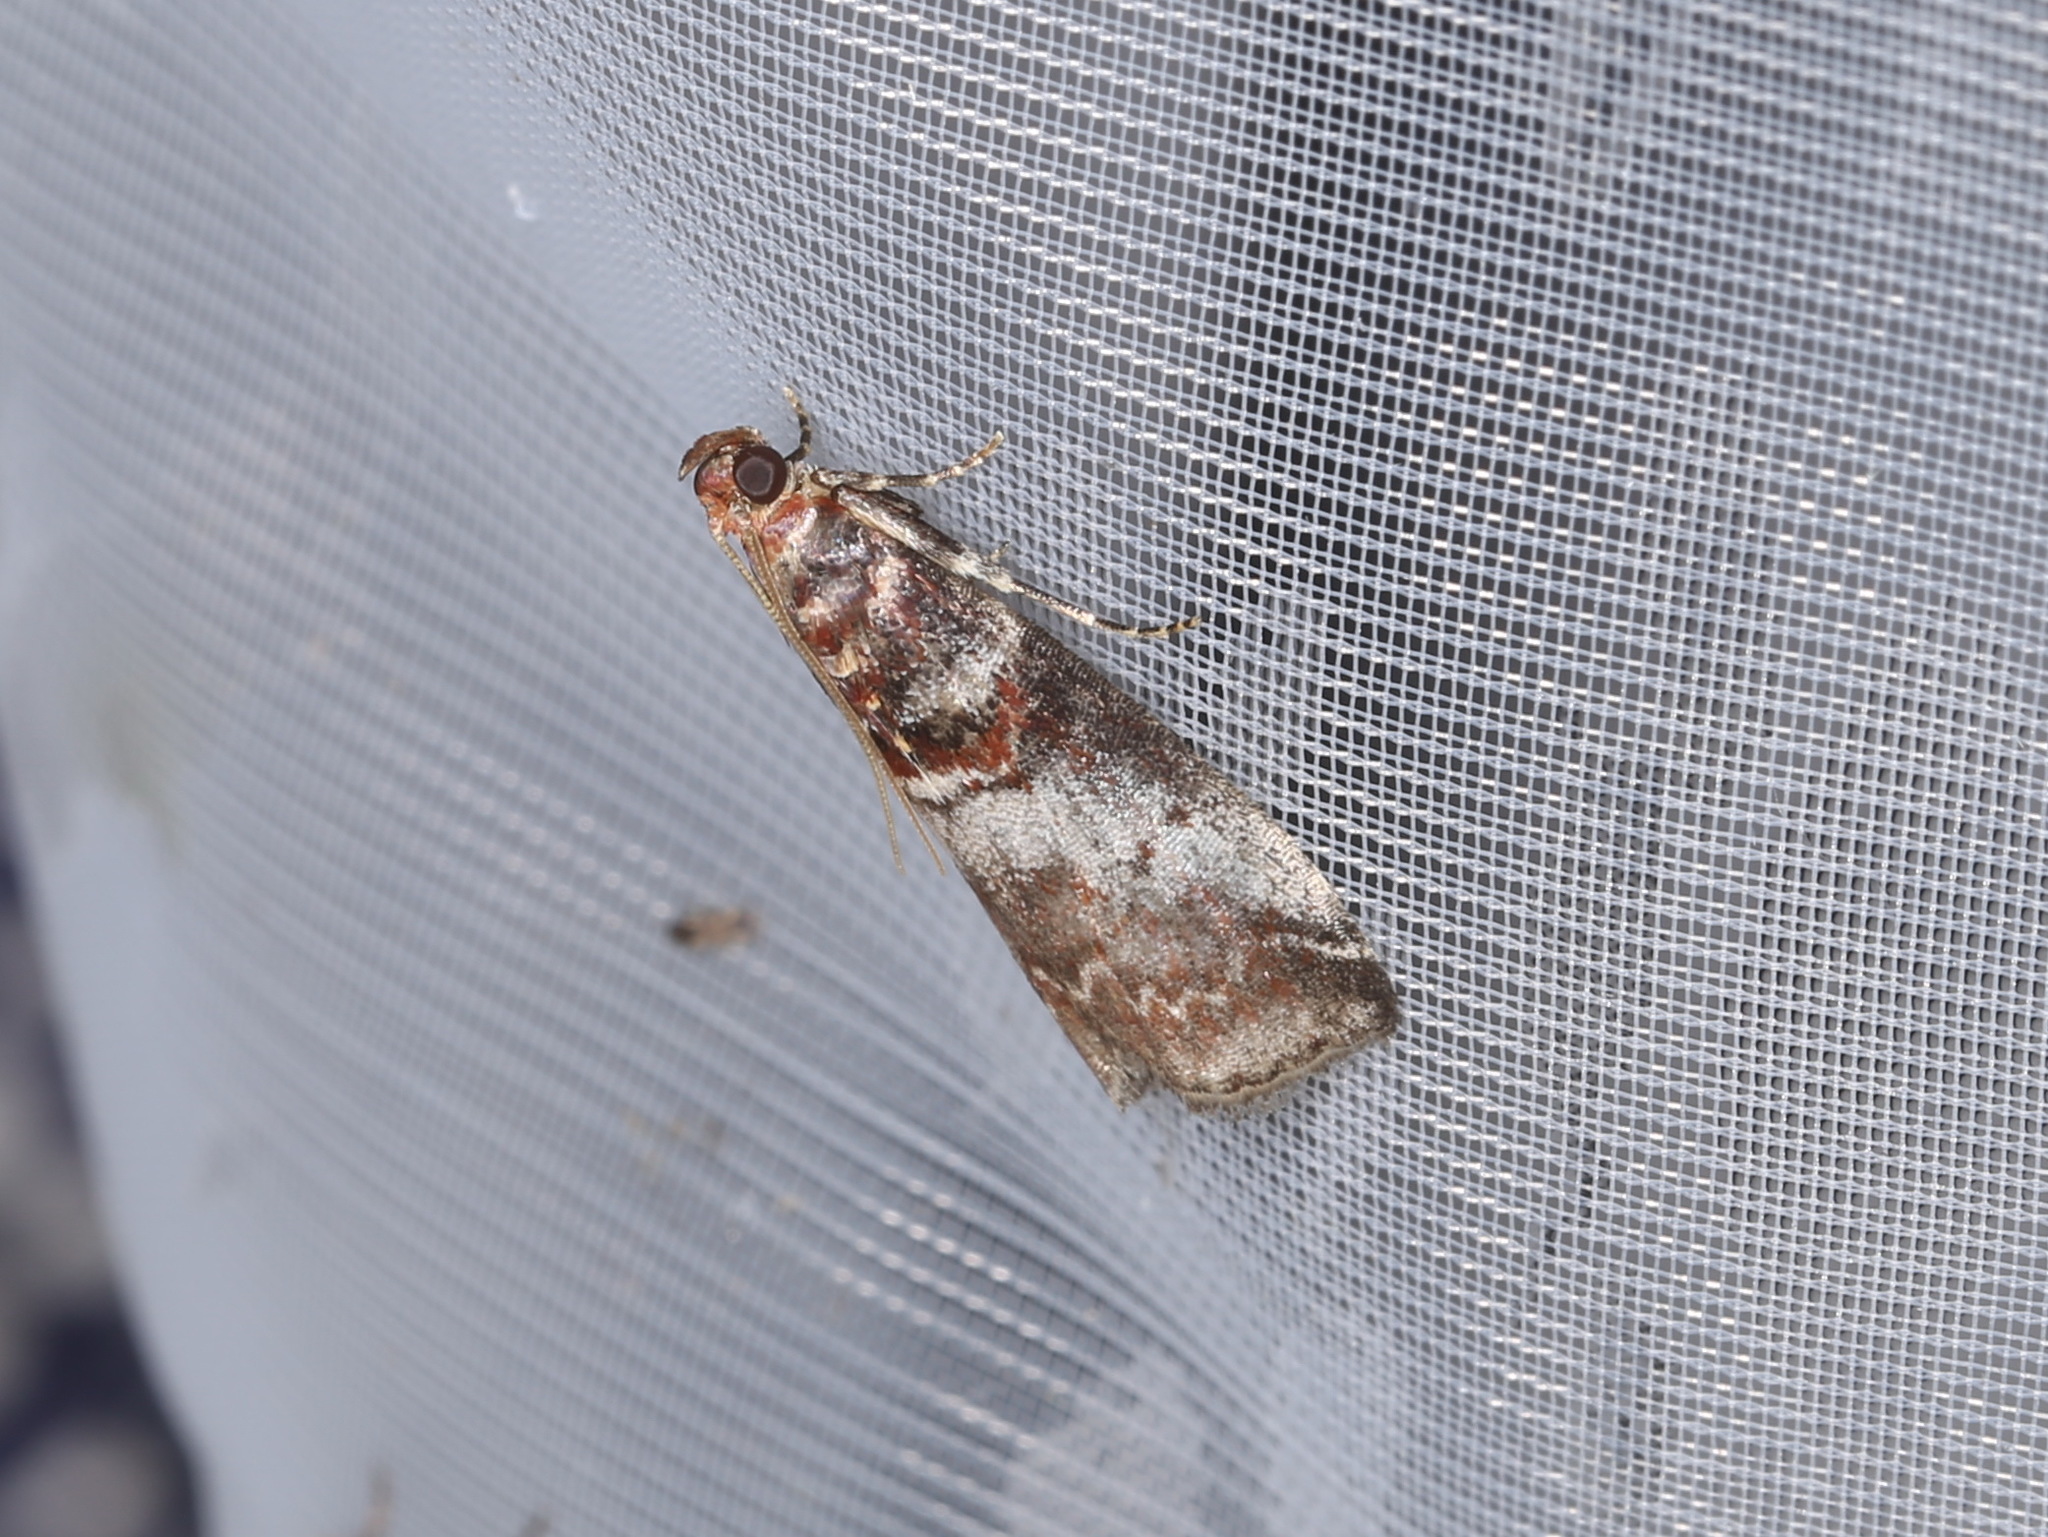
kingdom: Animalia
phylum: Arthropoda
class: Insecta
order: Lepidoptera
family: Pyralidae
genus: Acrobasis
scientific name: Acrobasis advenella
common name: Grey knot-horn
